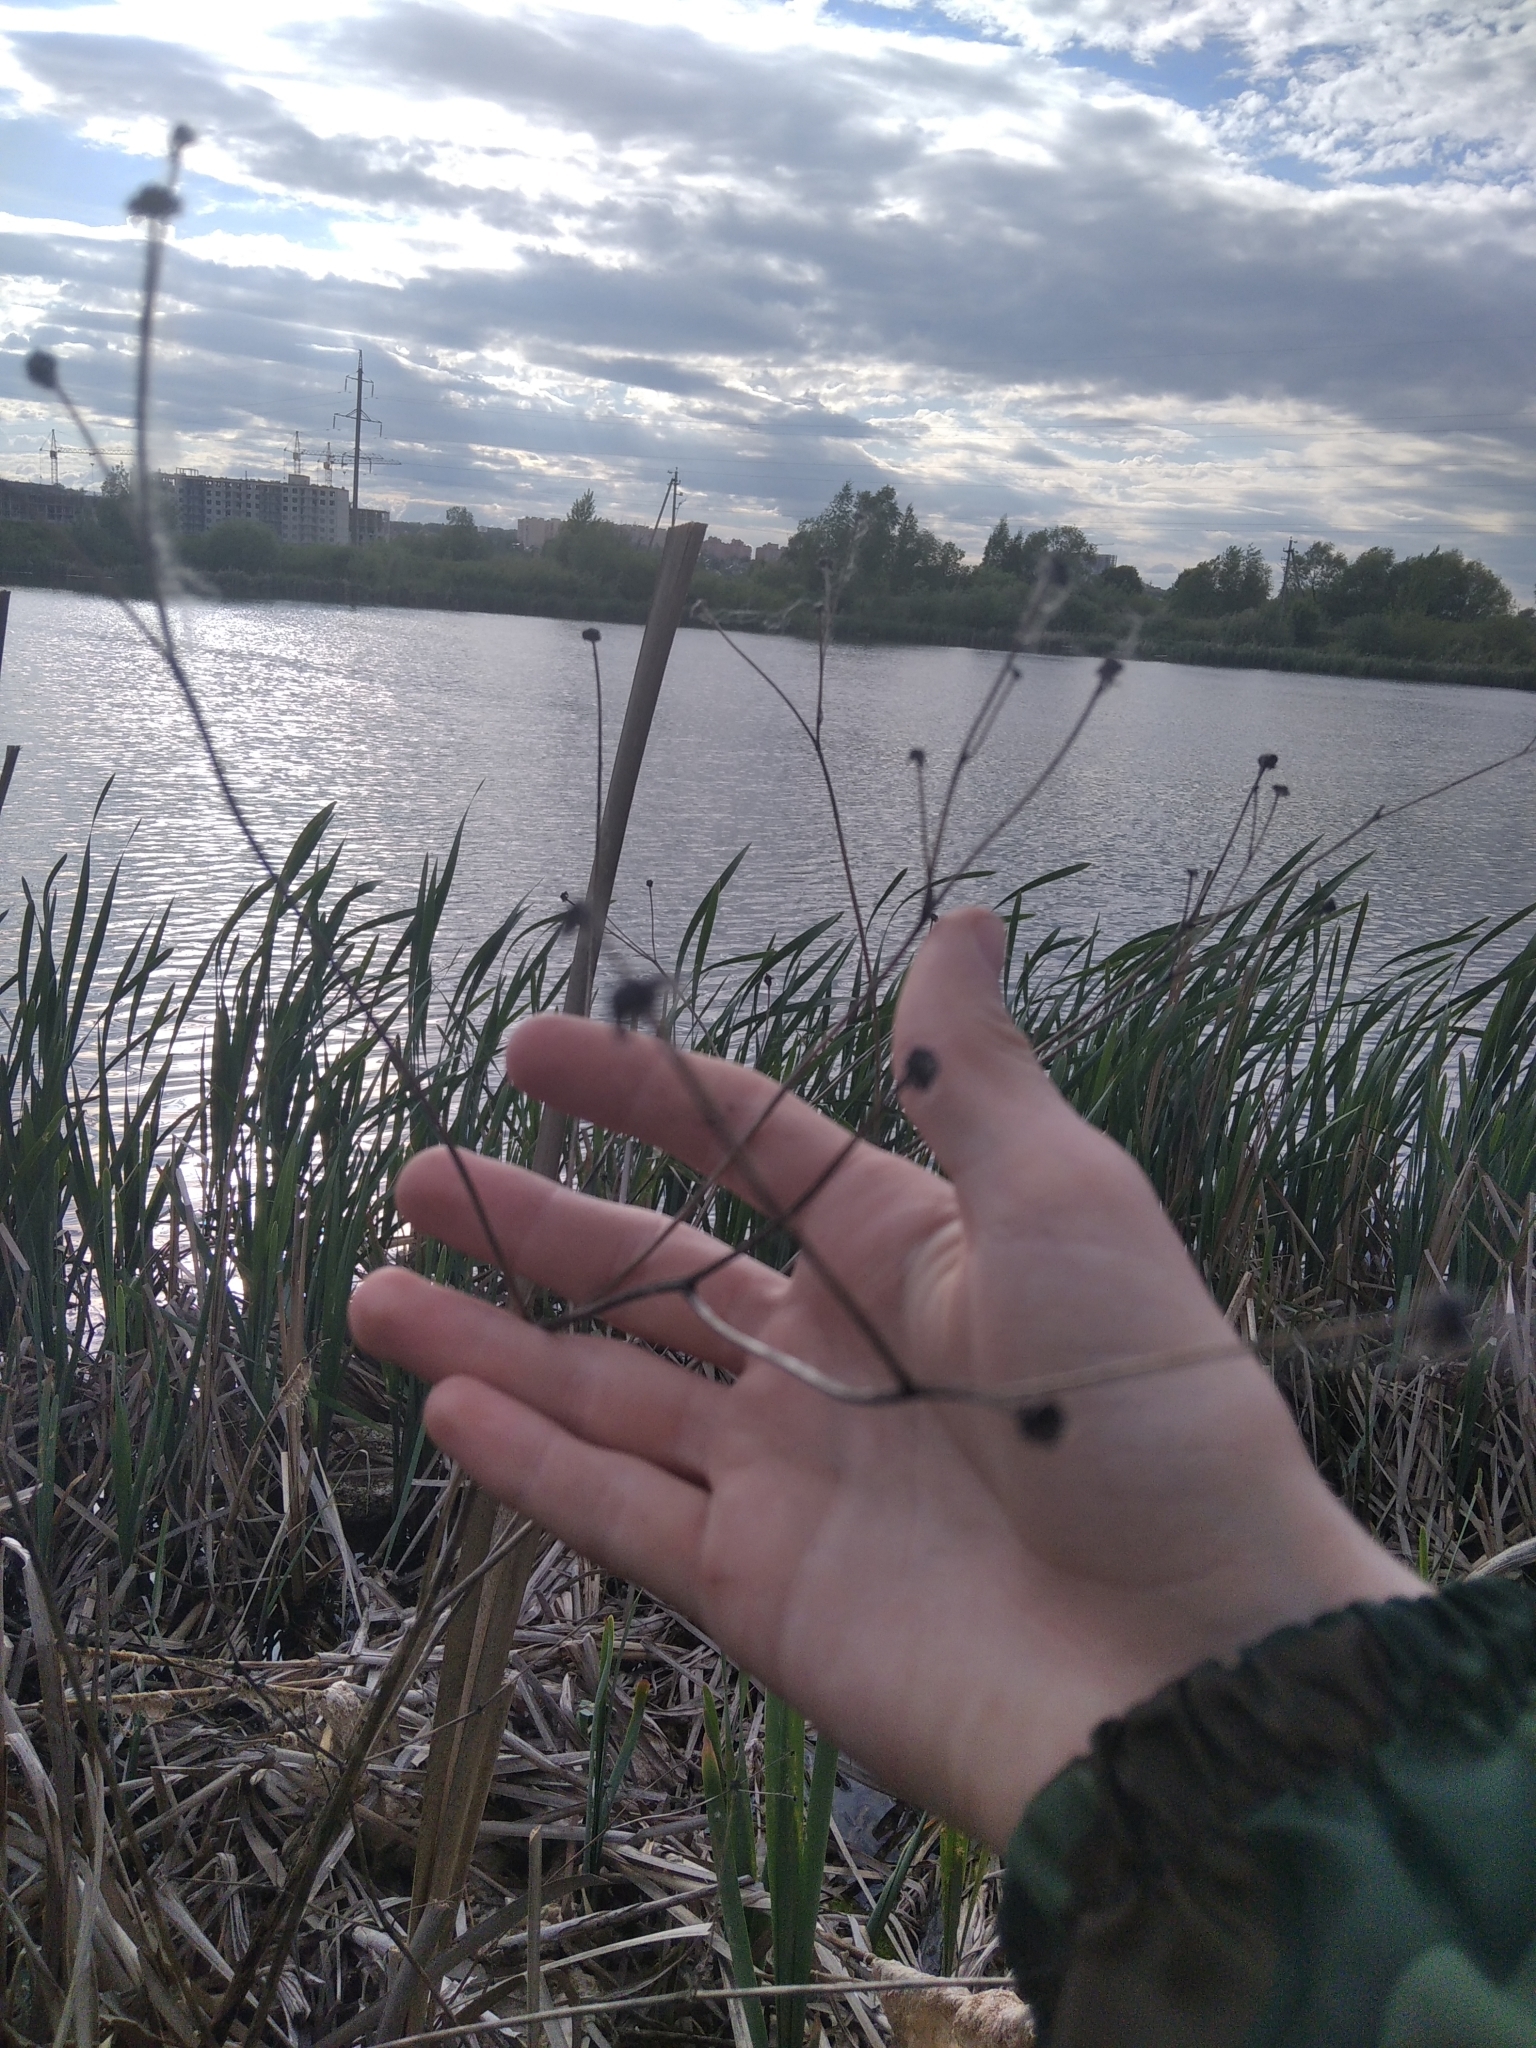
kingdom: Plantae
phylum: Tracheophyta
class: Liliopsida
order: Alismatales
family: Alismataceae
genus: Alisma
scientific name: Alisma plantago-aquatica
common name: Water-plantain
